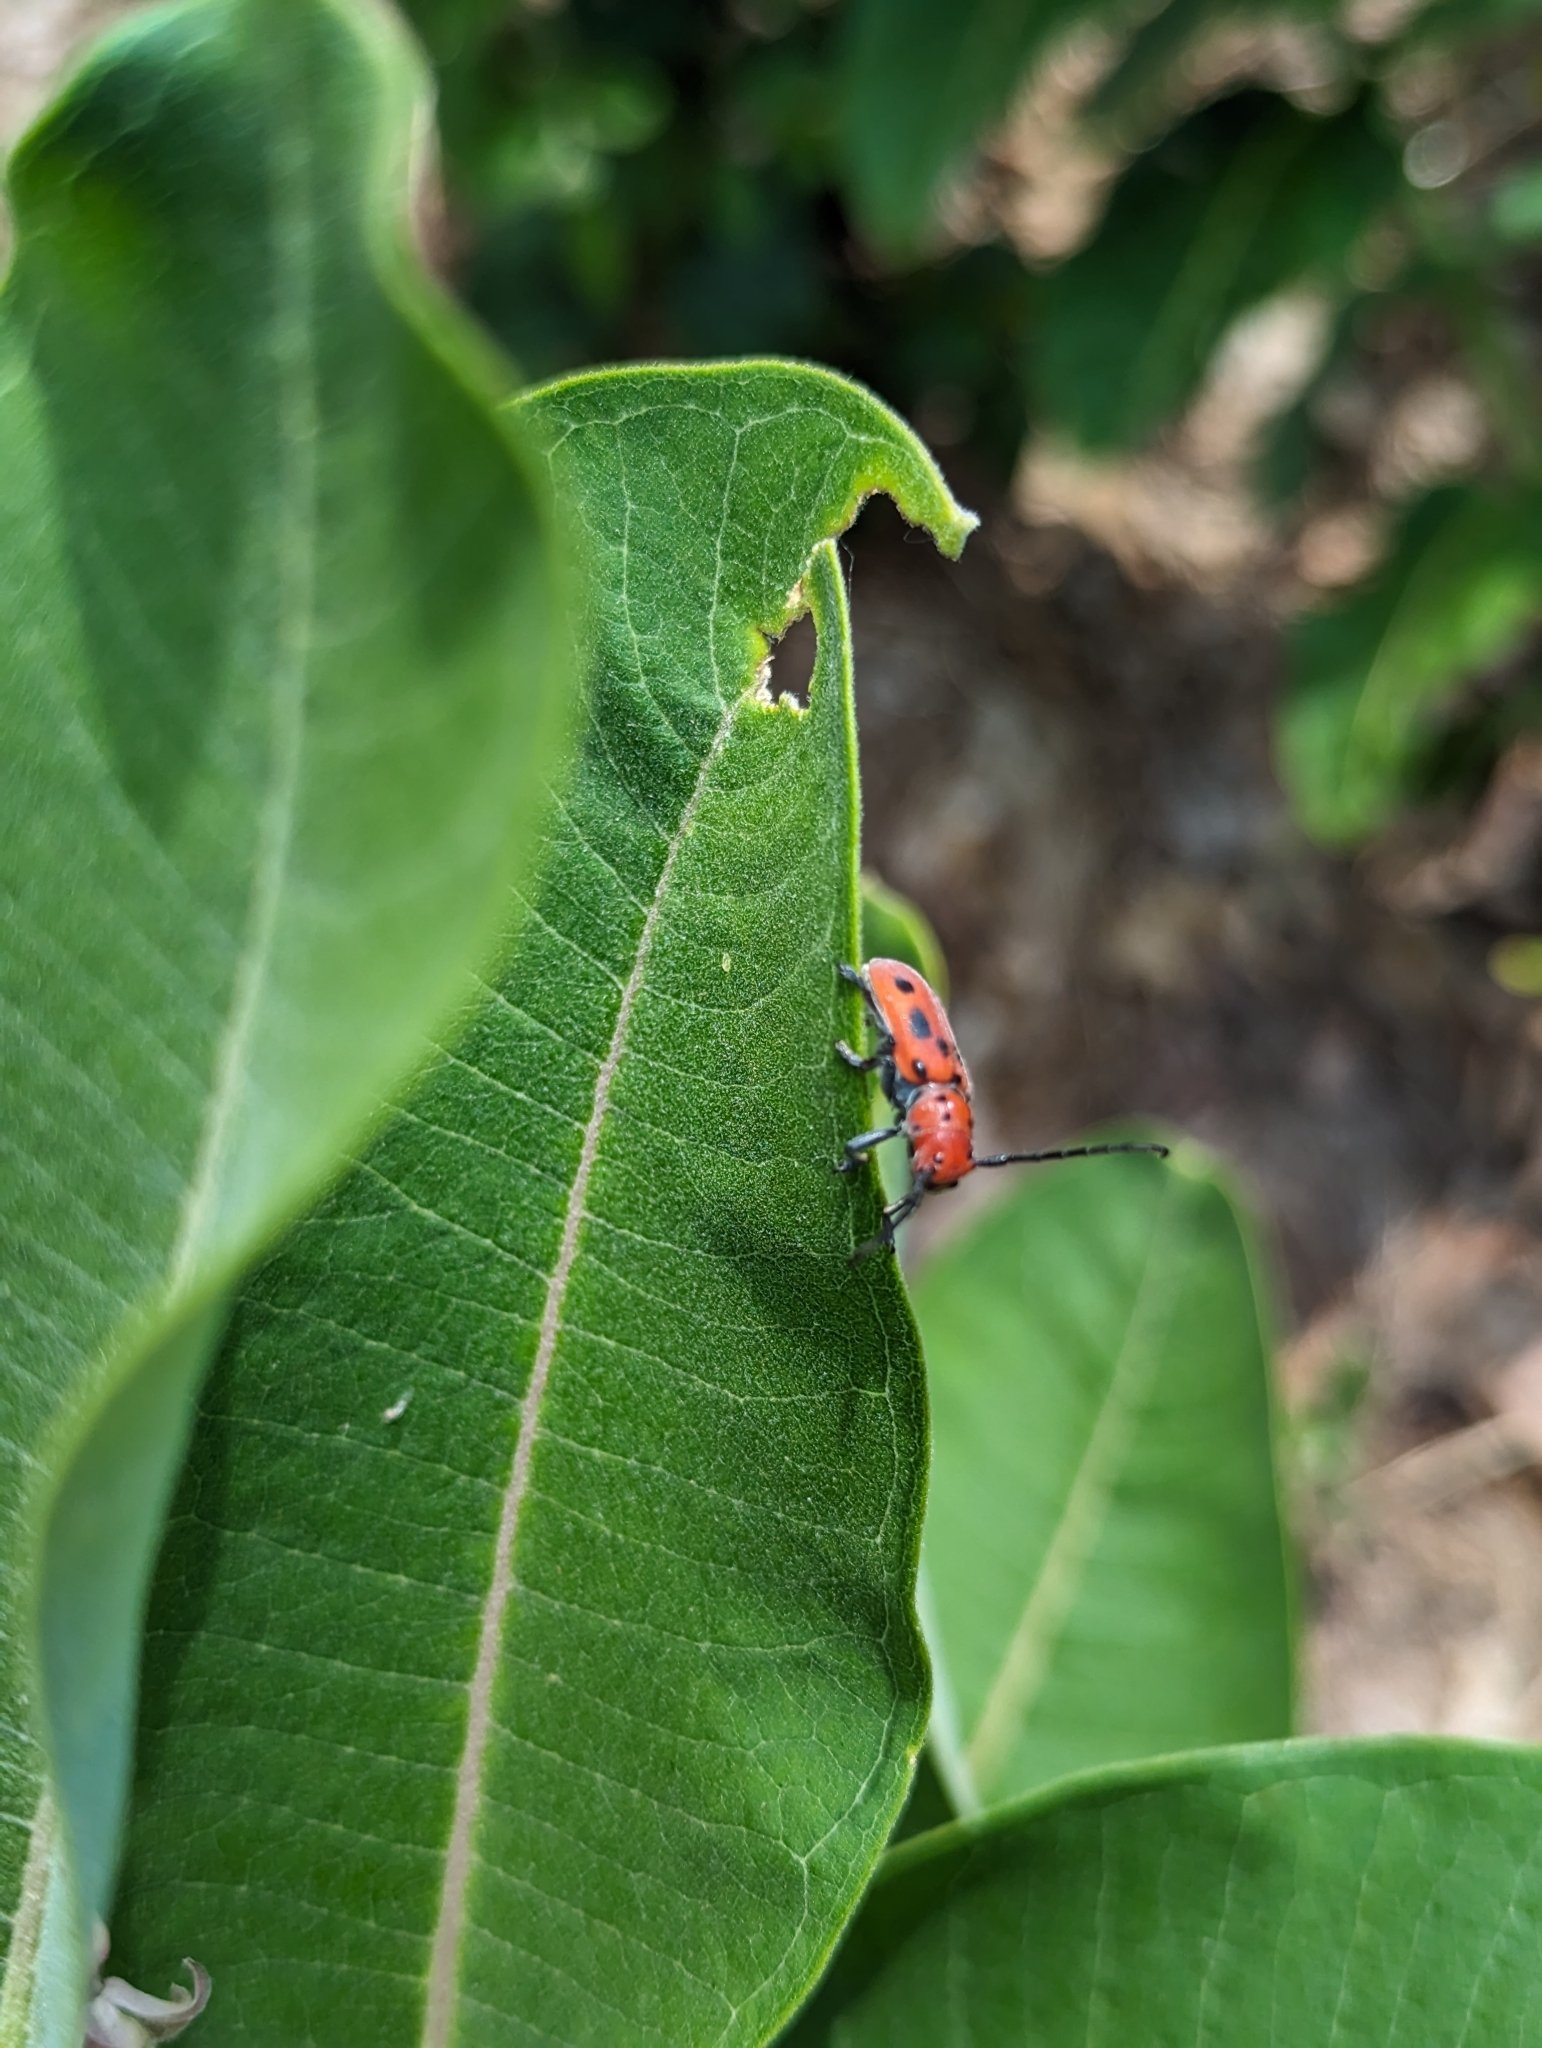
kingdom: Animalia
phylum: Arthropoda
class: Insecta
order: Coleoptera
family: Cerambycidae
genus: Tetraopes
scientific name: Tetraopes tetrophthalmus
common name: Red milkweed beetle
